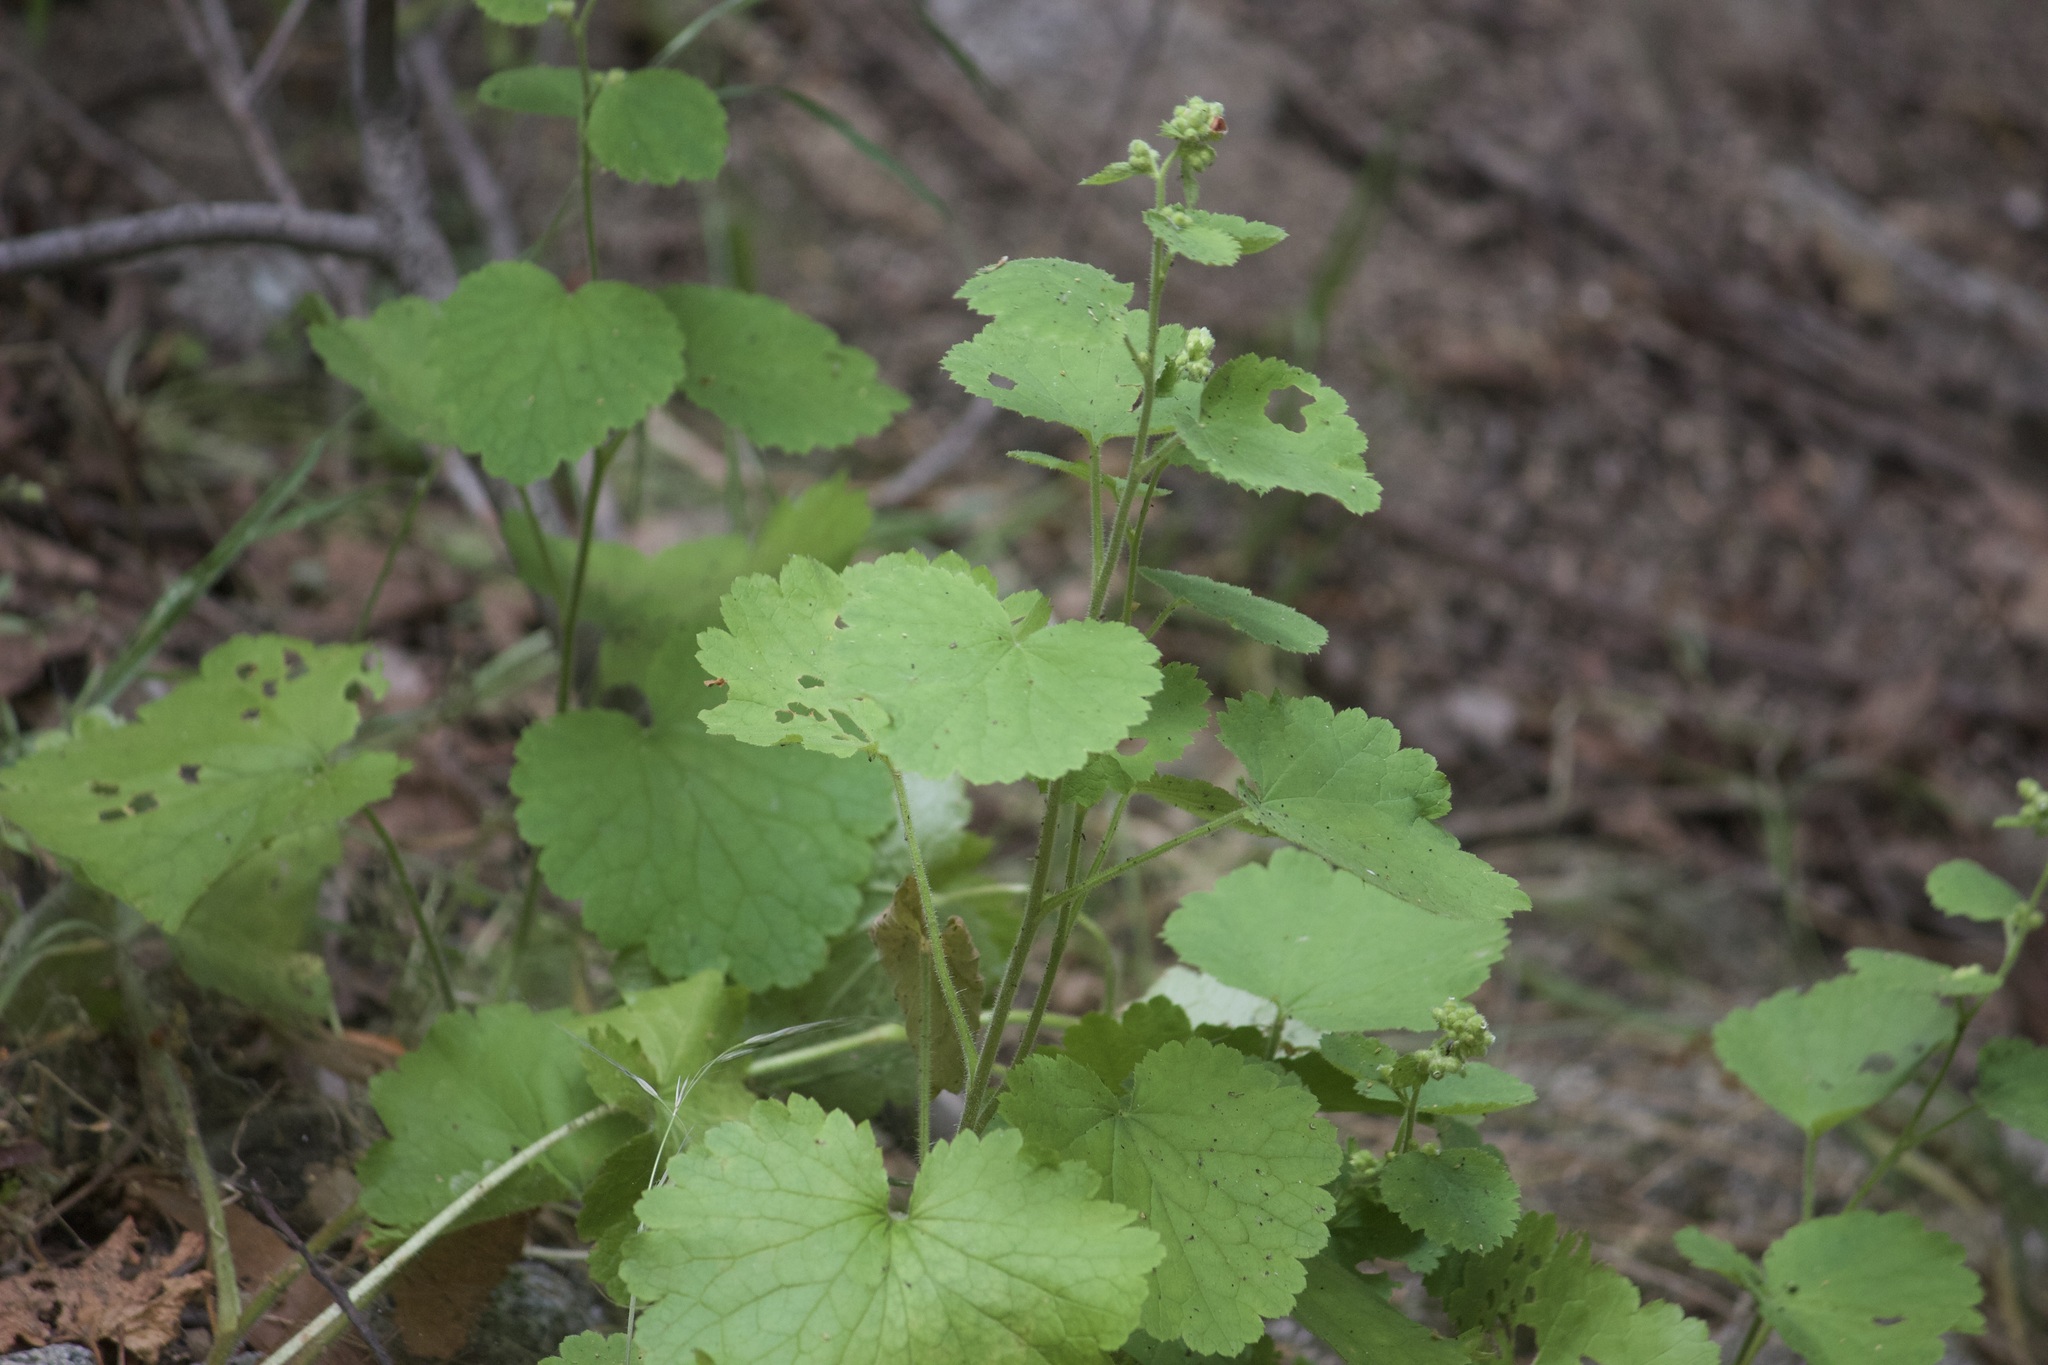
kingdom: Plantae
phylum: Tracheophyta
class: Magnoliopsida
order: Saxifragales
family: Saxifragaceae
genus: Boykinia
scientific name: Boykinia rotundifolia
